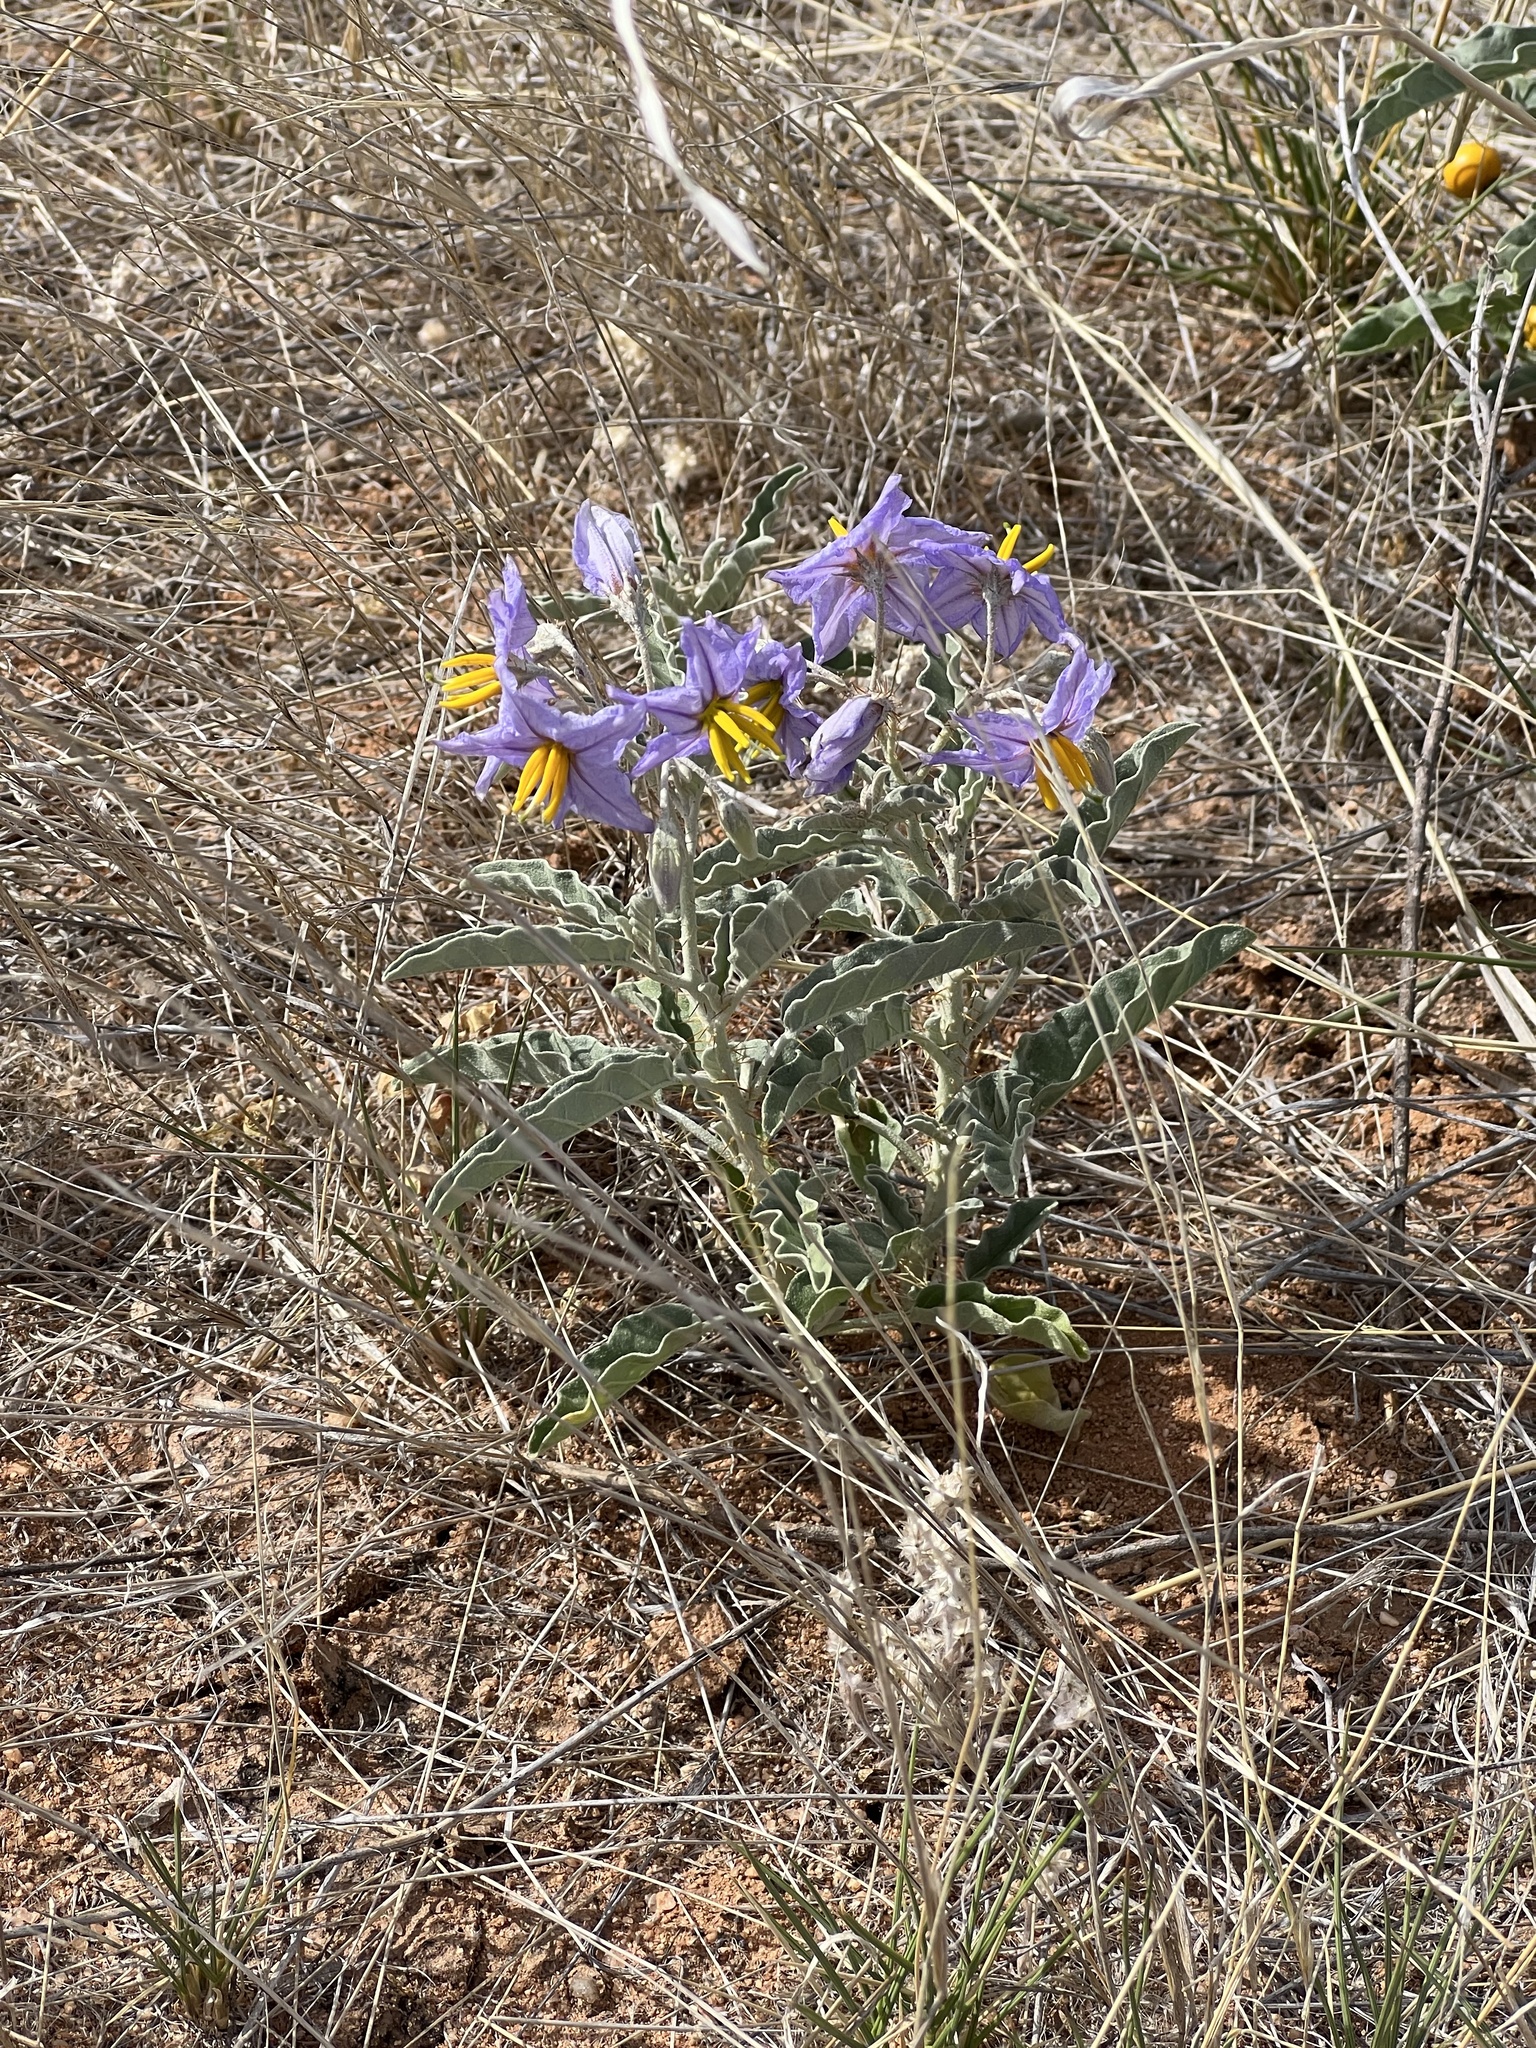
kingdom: Plantae
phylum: Tracheophyta
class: Magnoliopsida
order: Solanales
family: Solanaceae
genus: Solanum
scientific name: Solanum elaeagnifolium
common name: Silverleaf nightshade
